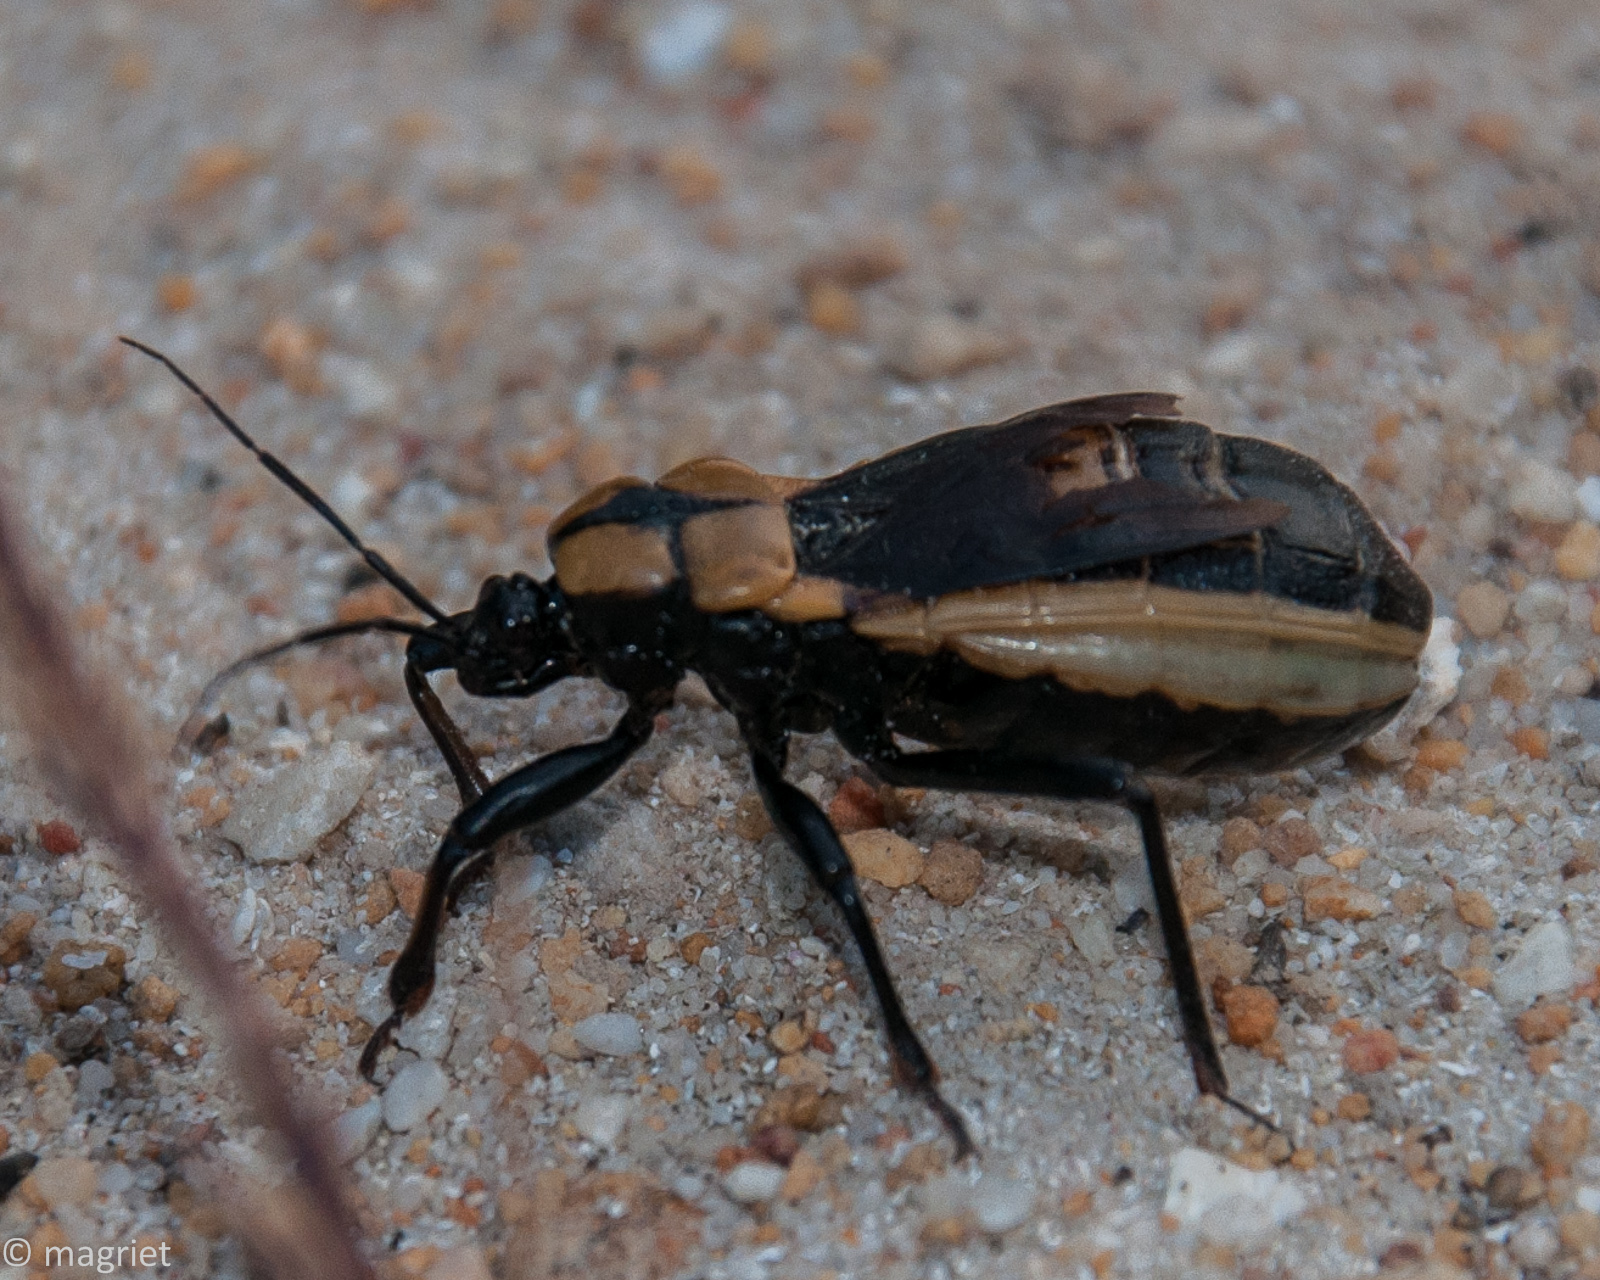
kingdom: Animalia
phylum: Arthropoda
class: Insecta
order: Hemiptera
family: Reduviidae
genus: Ectrichodia
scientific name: Ectrichodia crux
